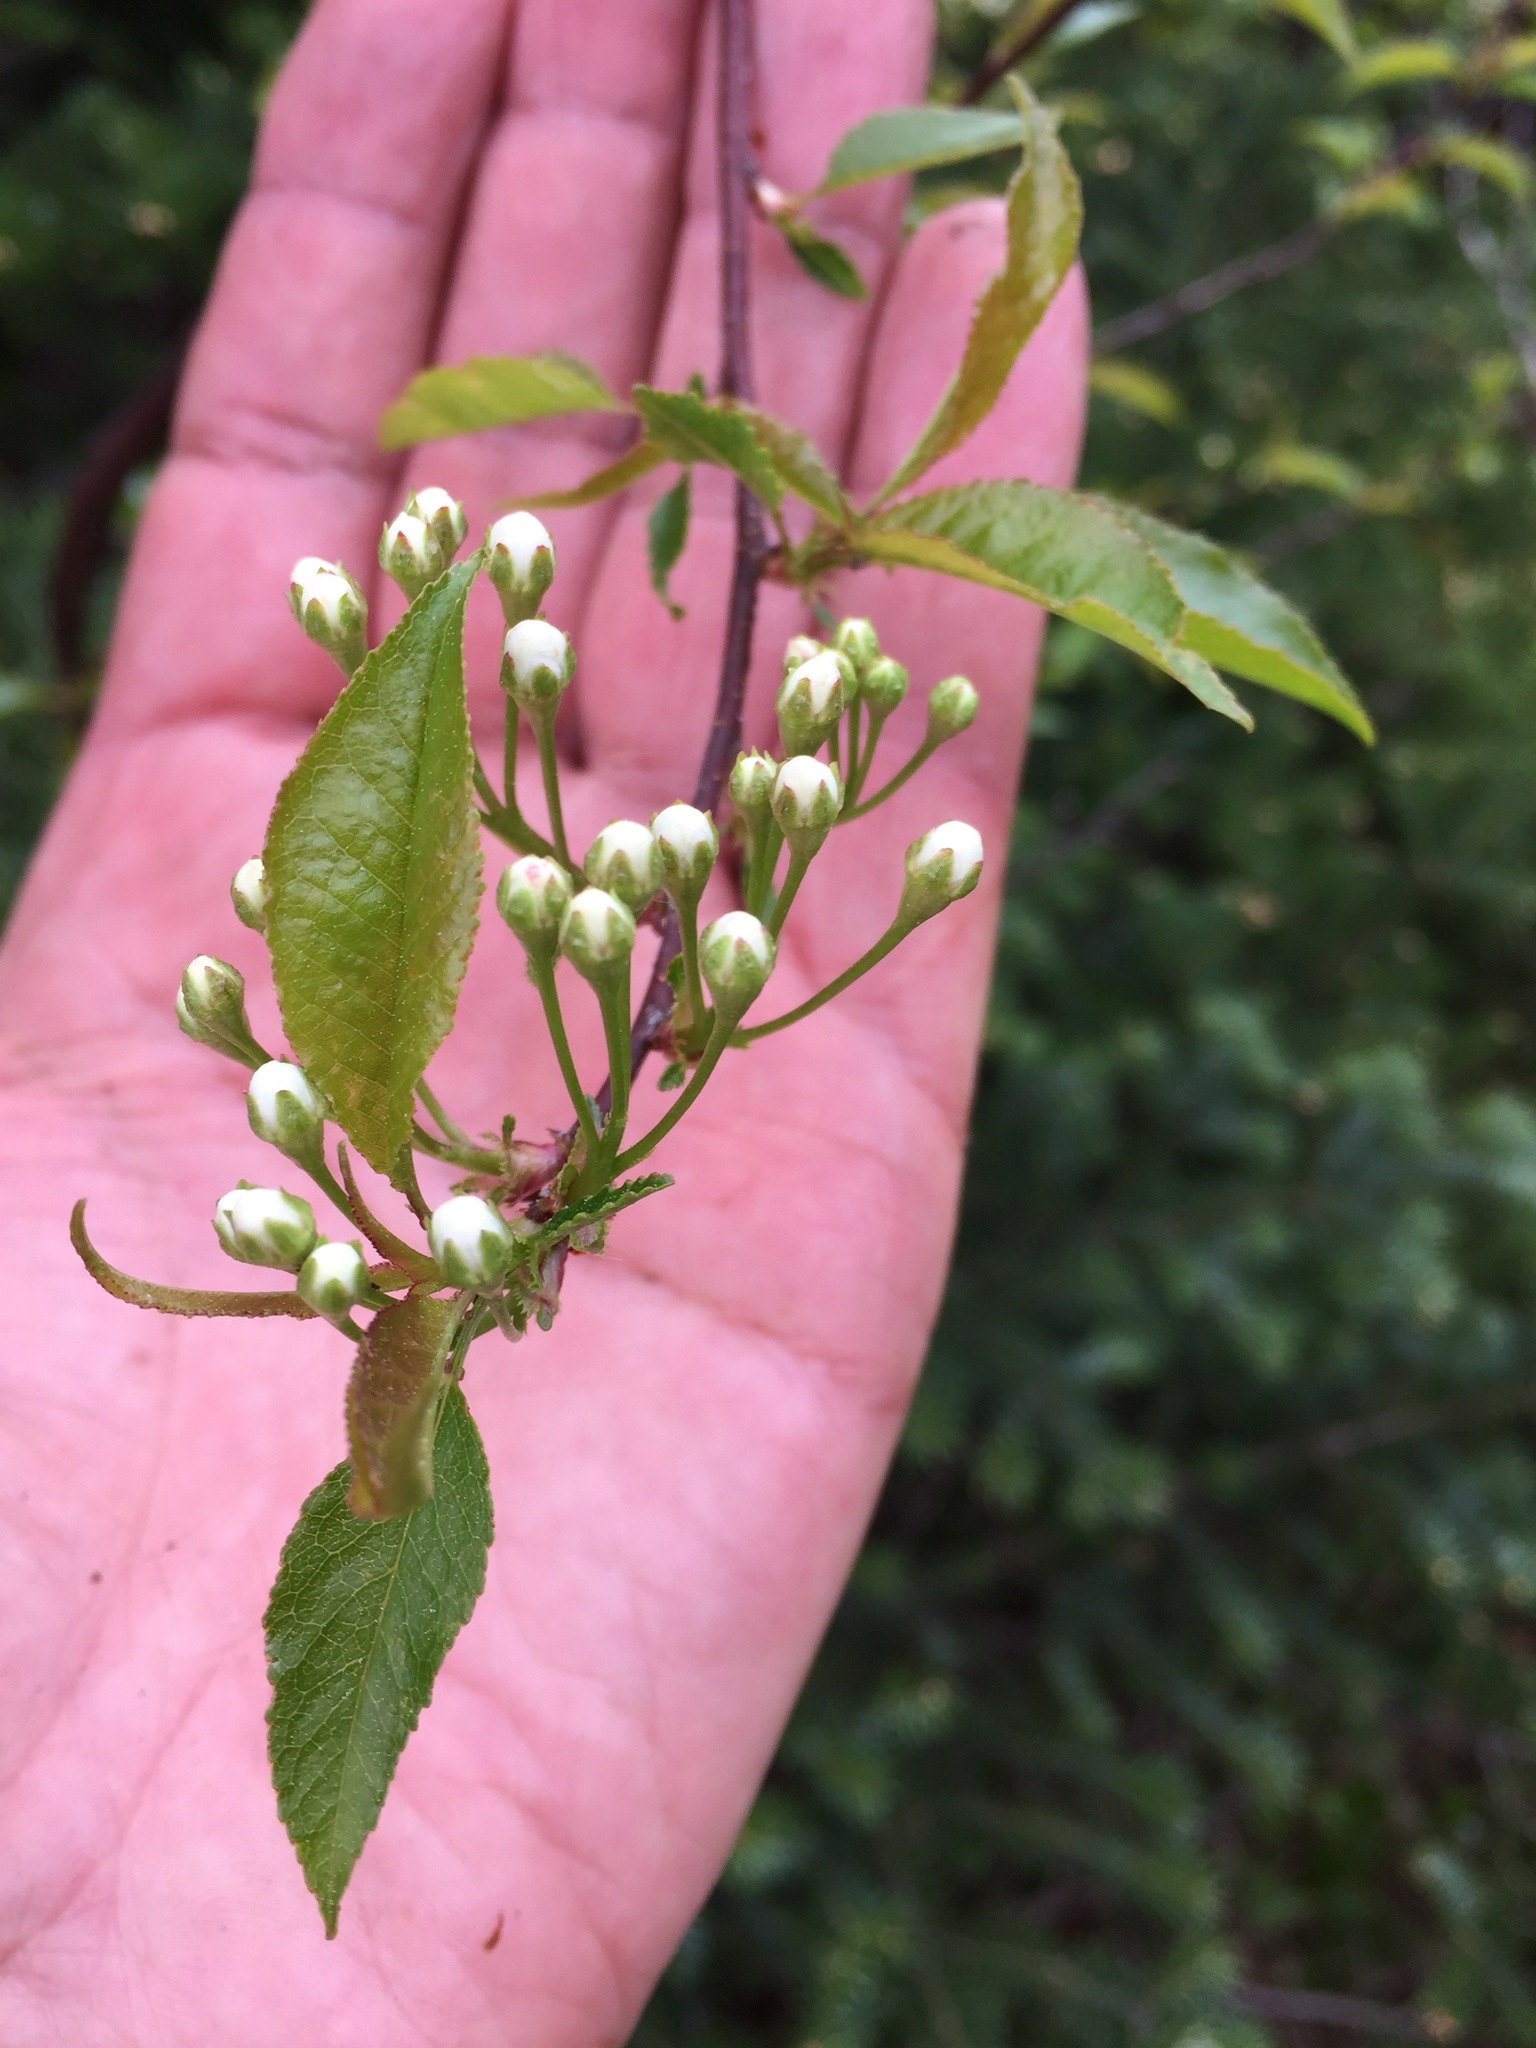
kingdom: Plantae
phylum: Tracheophyta
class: Magnoliopsida
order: Rosales
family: Rosaceae
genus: Prunus
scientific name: Prunus pensylvanica
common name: Pin cherry
